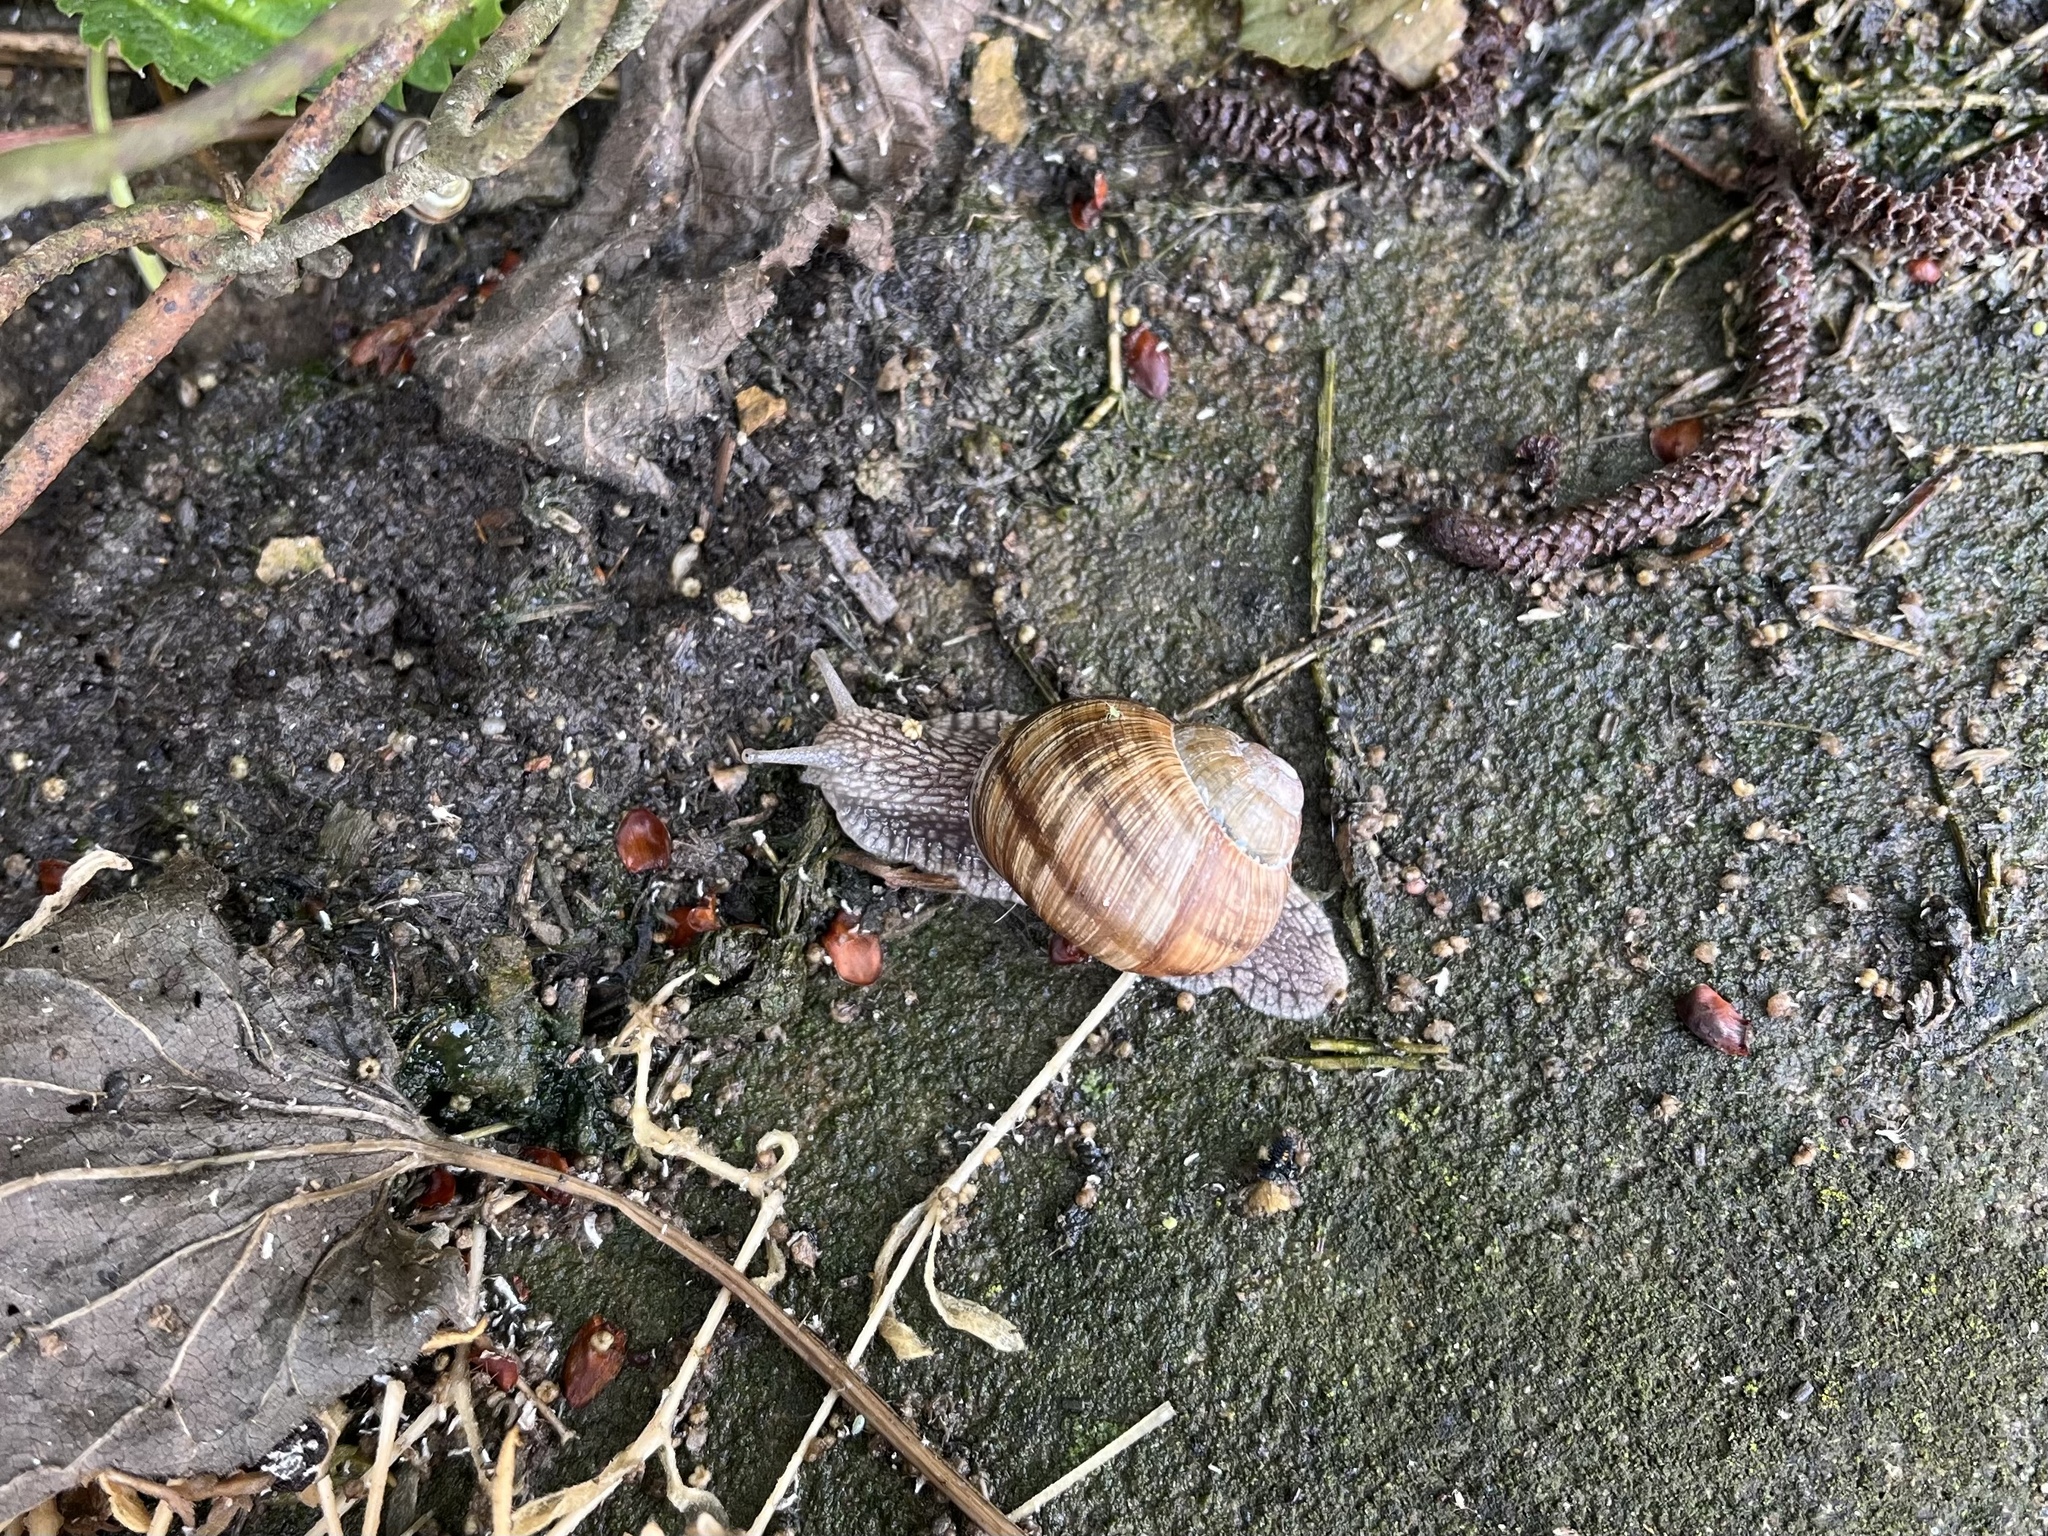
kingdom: Animalia
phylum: Mollusca
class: Gastropoda
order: Stylommatophora
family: Helicidae
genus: Helix
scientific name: Helix pomatia
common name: Roman snail
